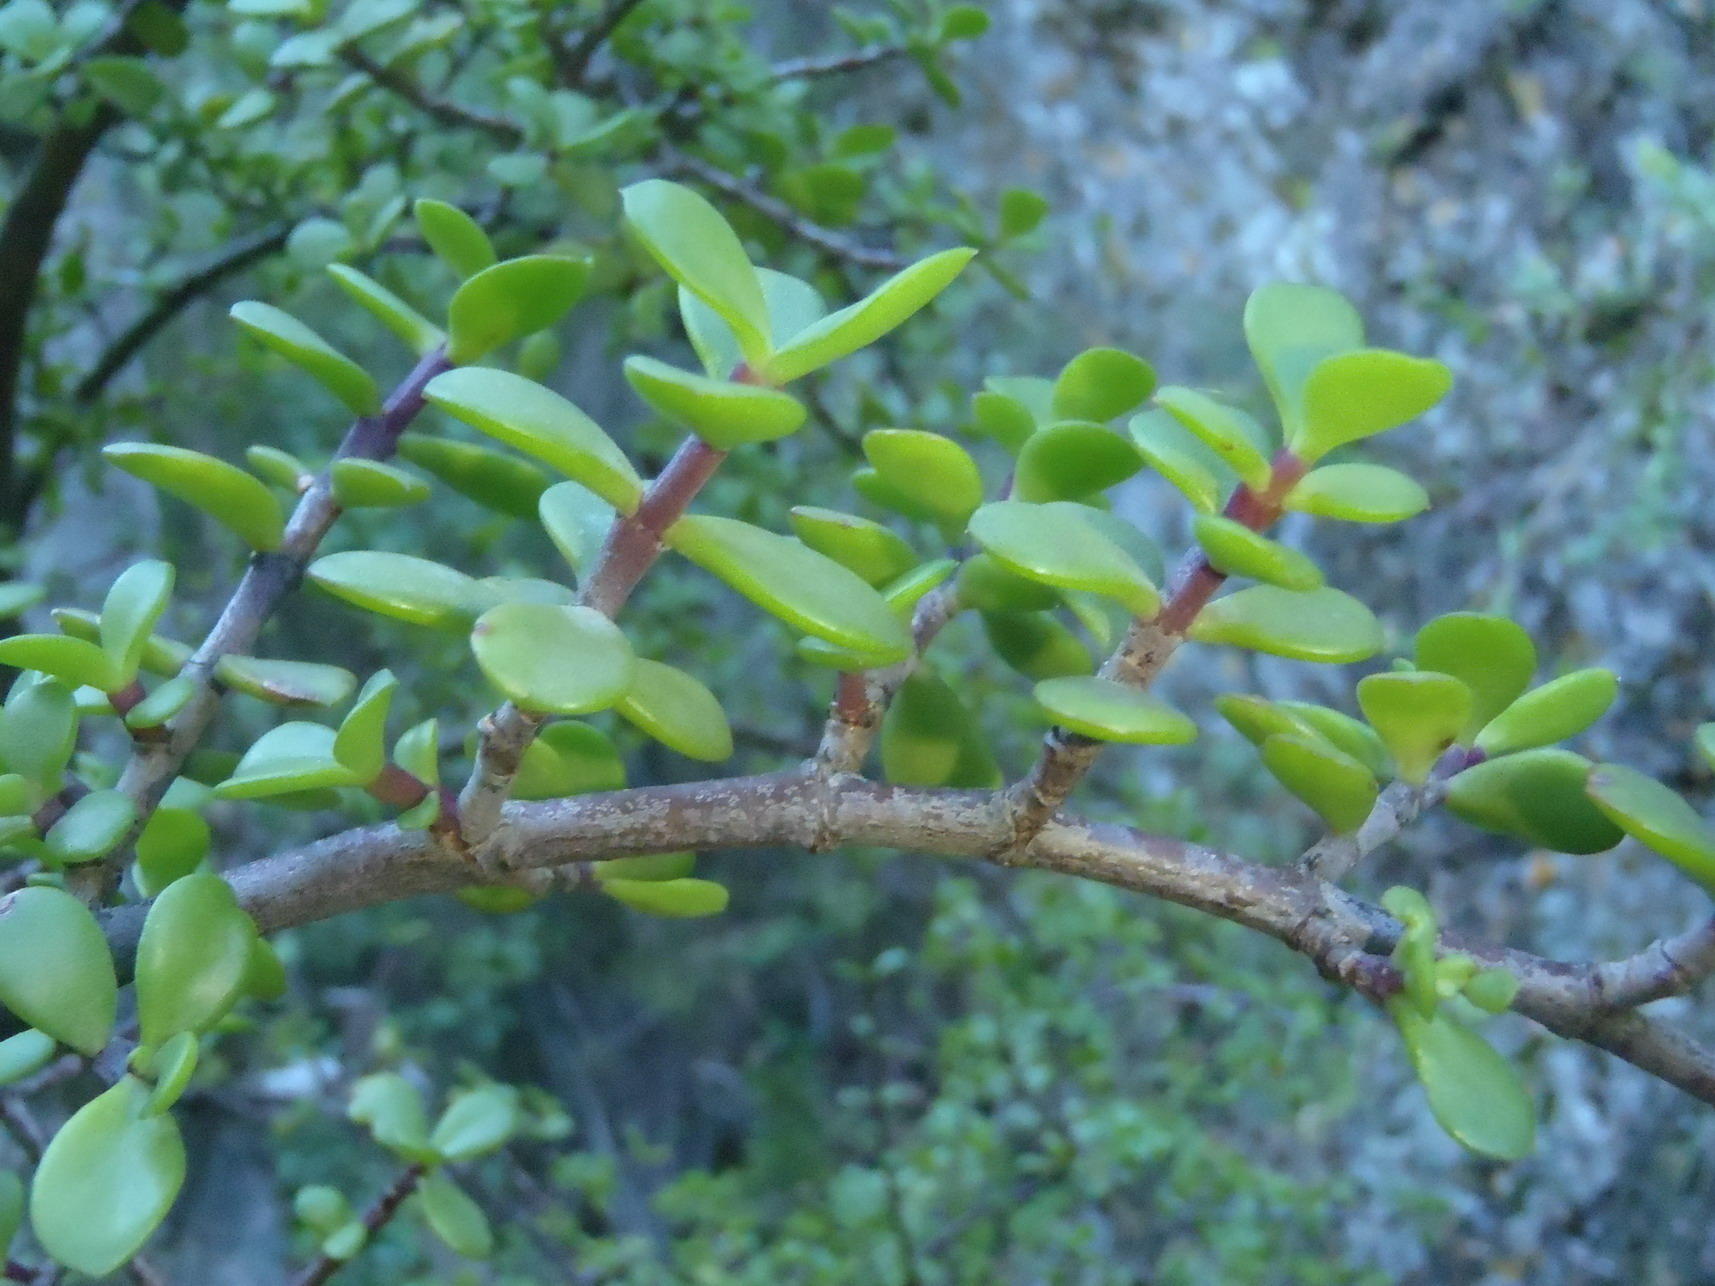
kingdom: Plantae
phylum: Tracheophyta
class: Magnoliopsida
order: Caryophyllales
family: Didiereaceae
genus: Portulacaria
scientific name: Portulacaria afra
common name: Elephant-bush
